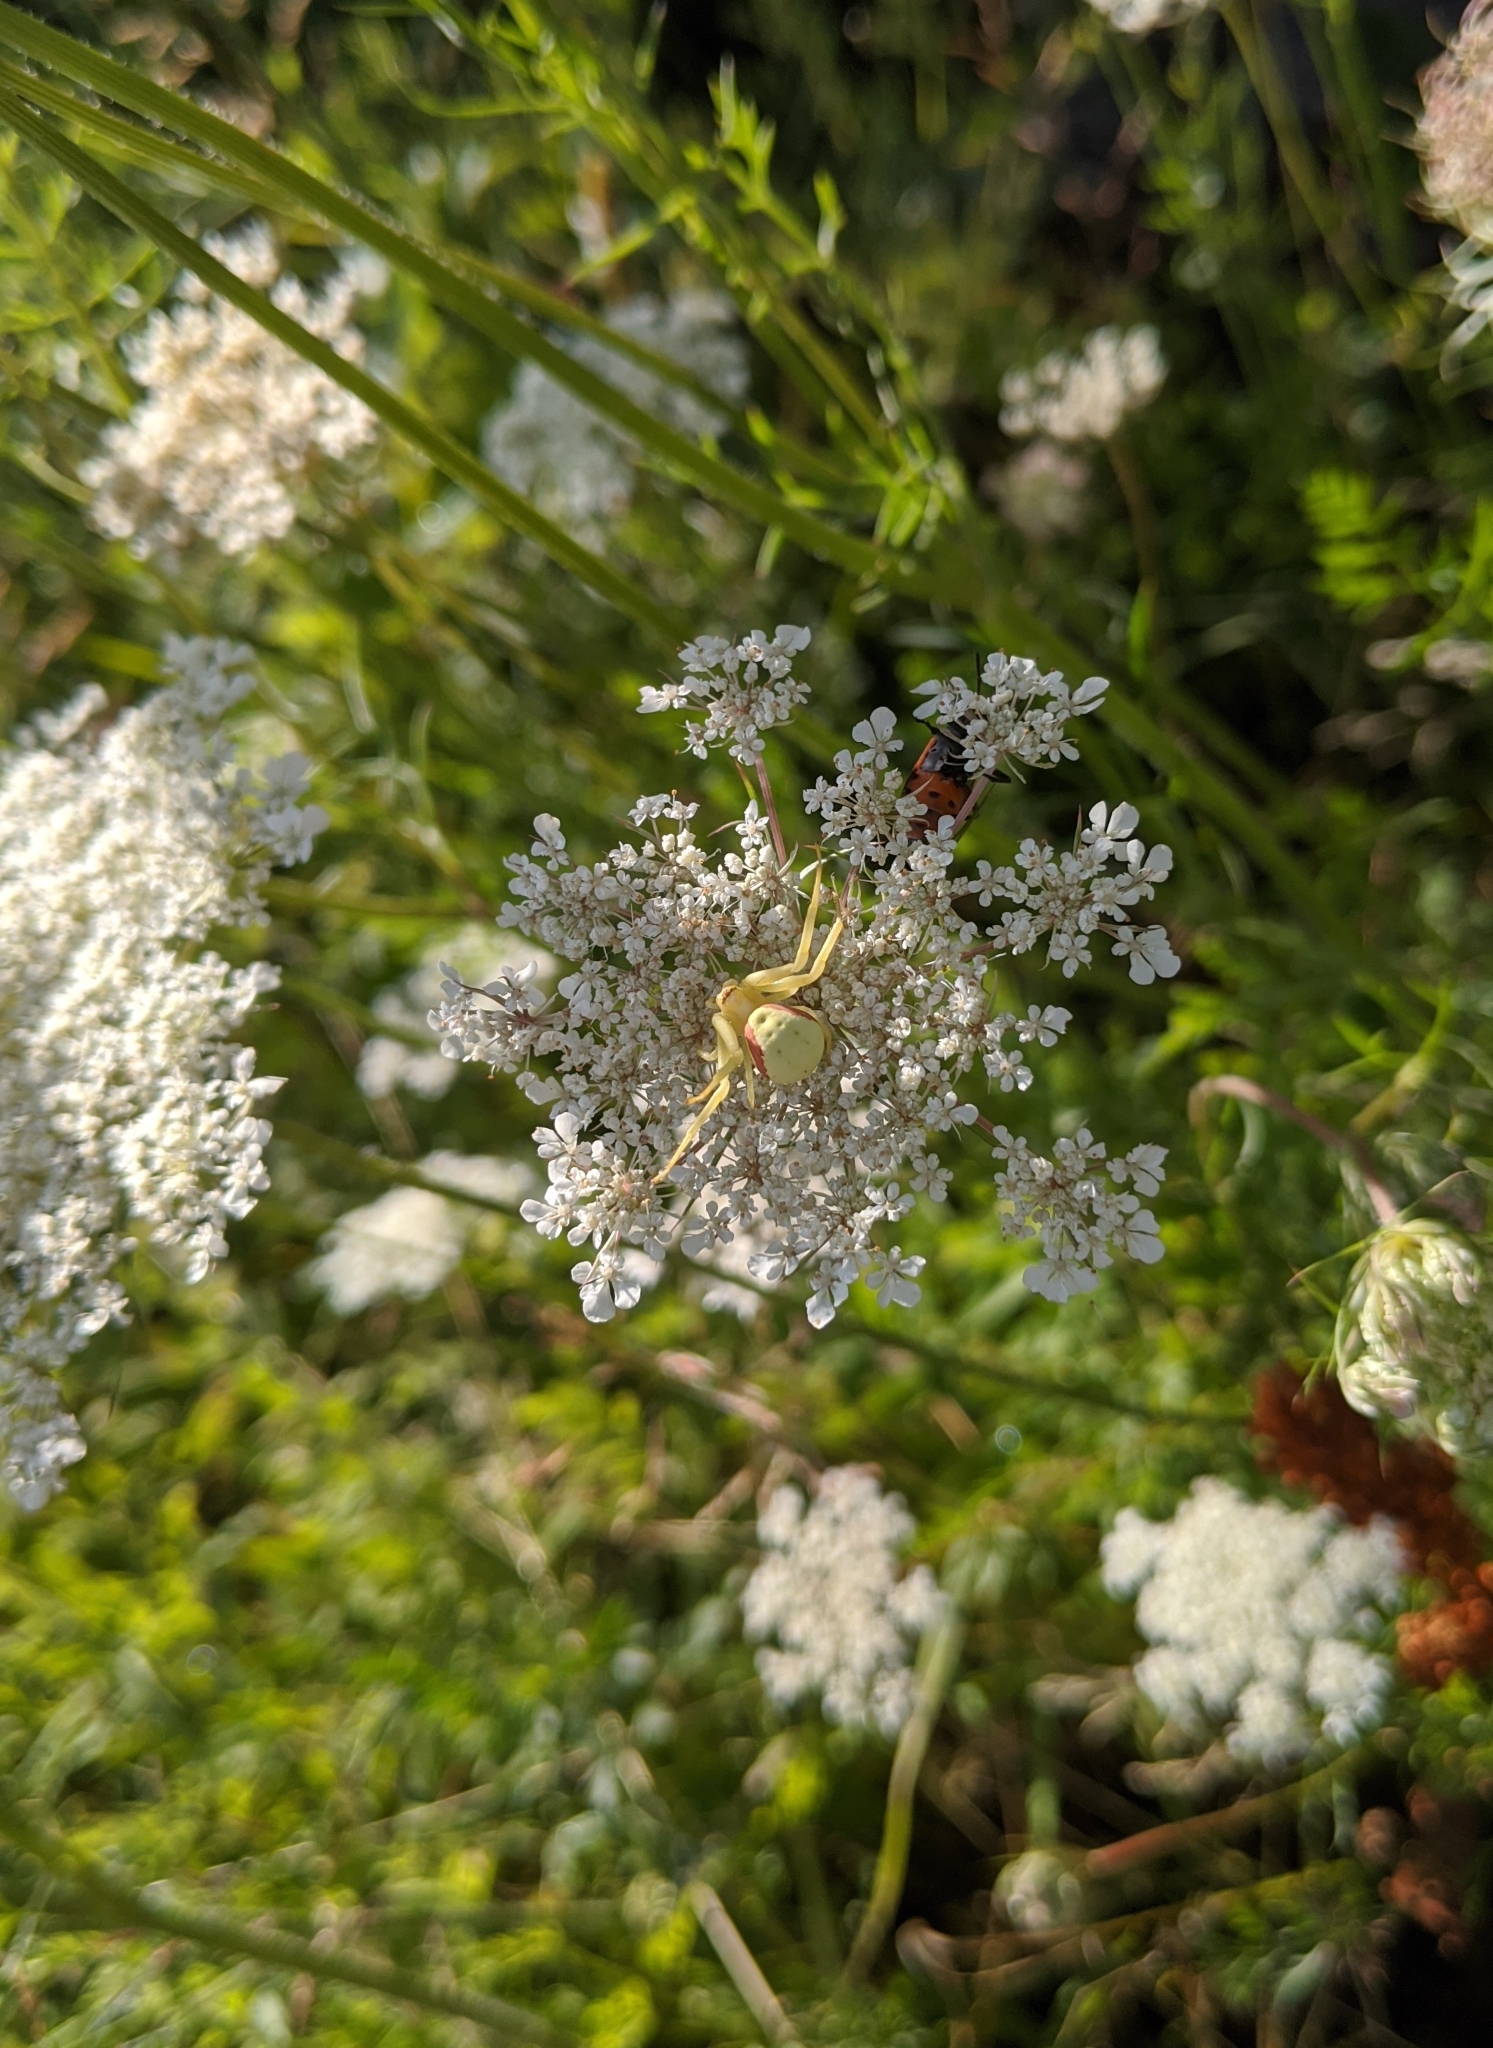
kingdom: Animalia
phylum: Arthropoda
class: Arachnida
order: Araneae
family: Thomisidae
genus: Misumena
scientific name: Misumena vatia
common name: Goldenrod crab spider
